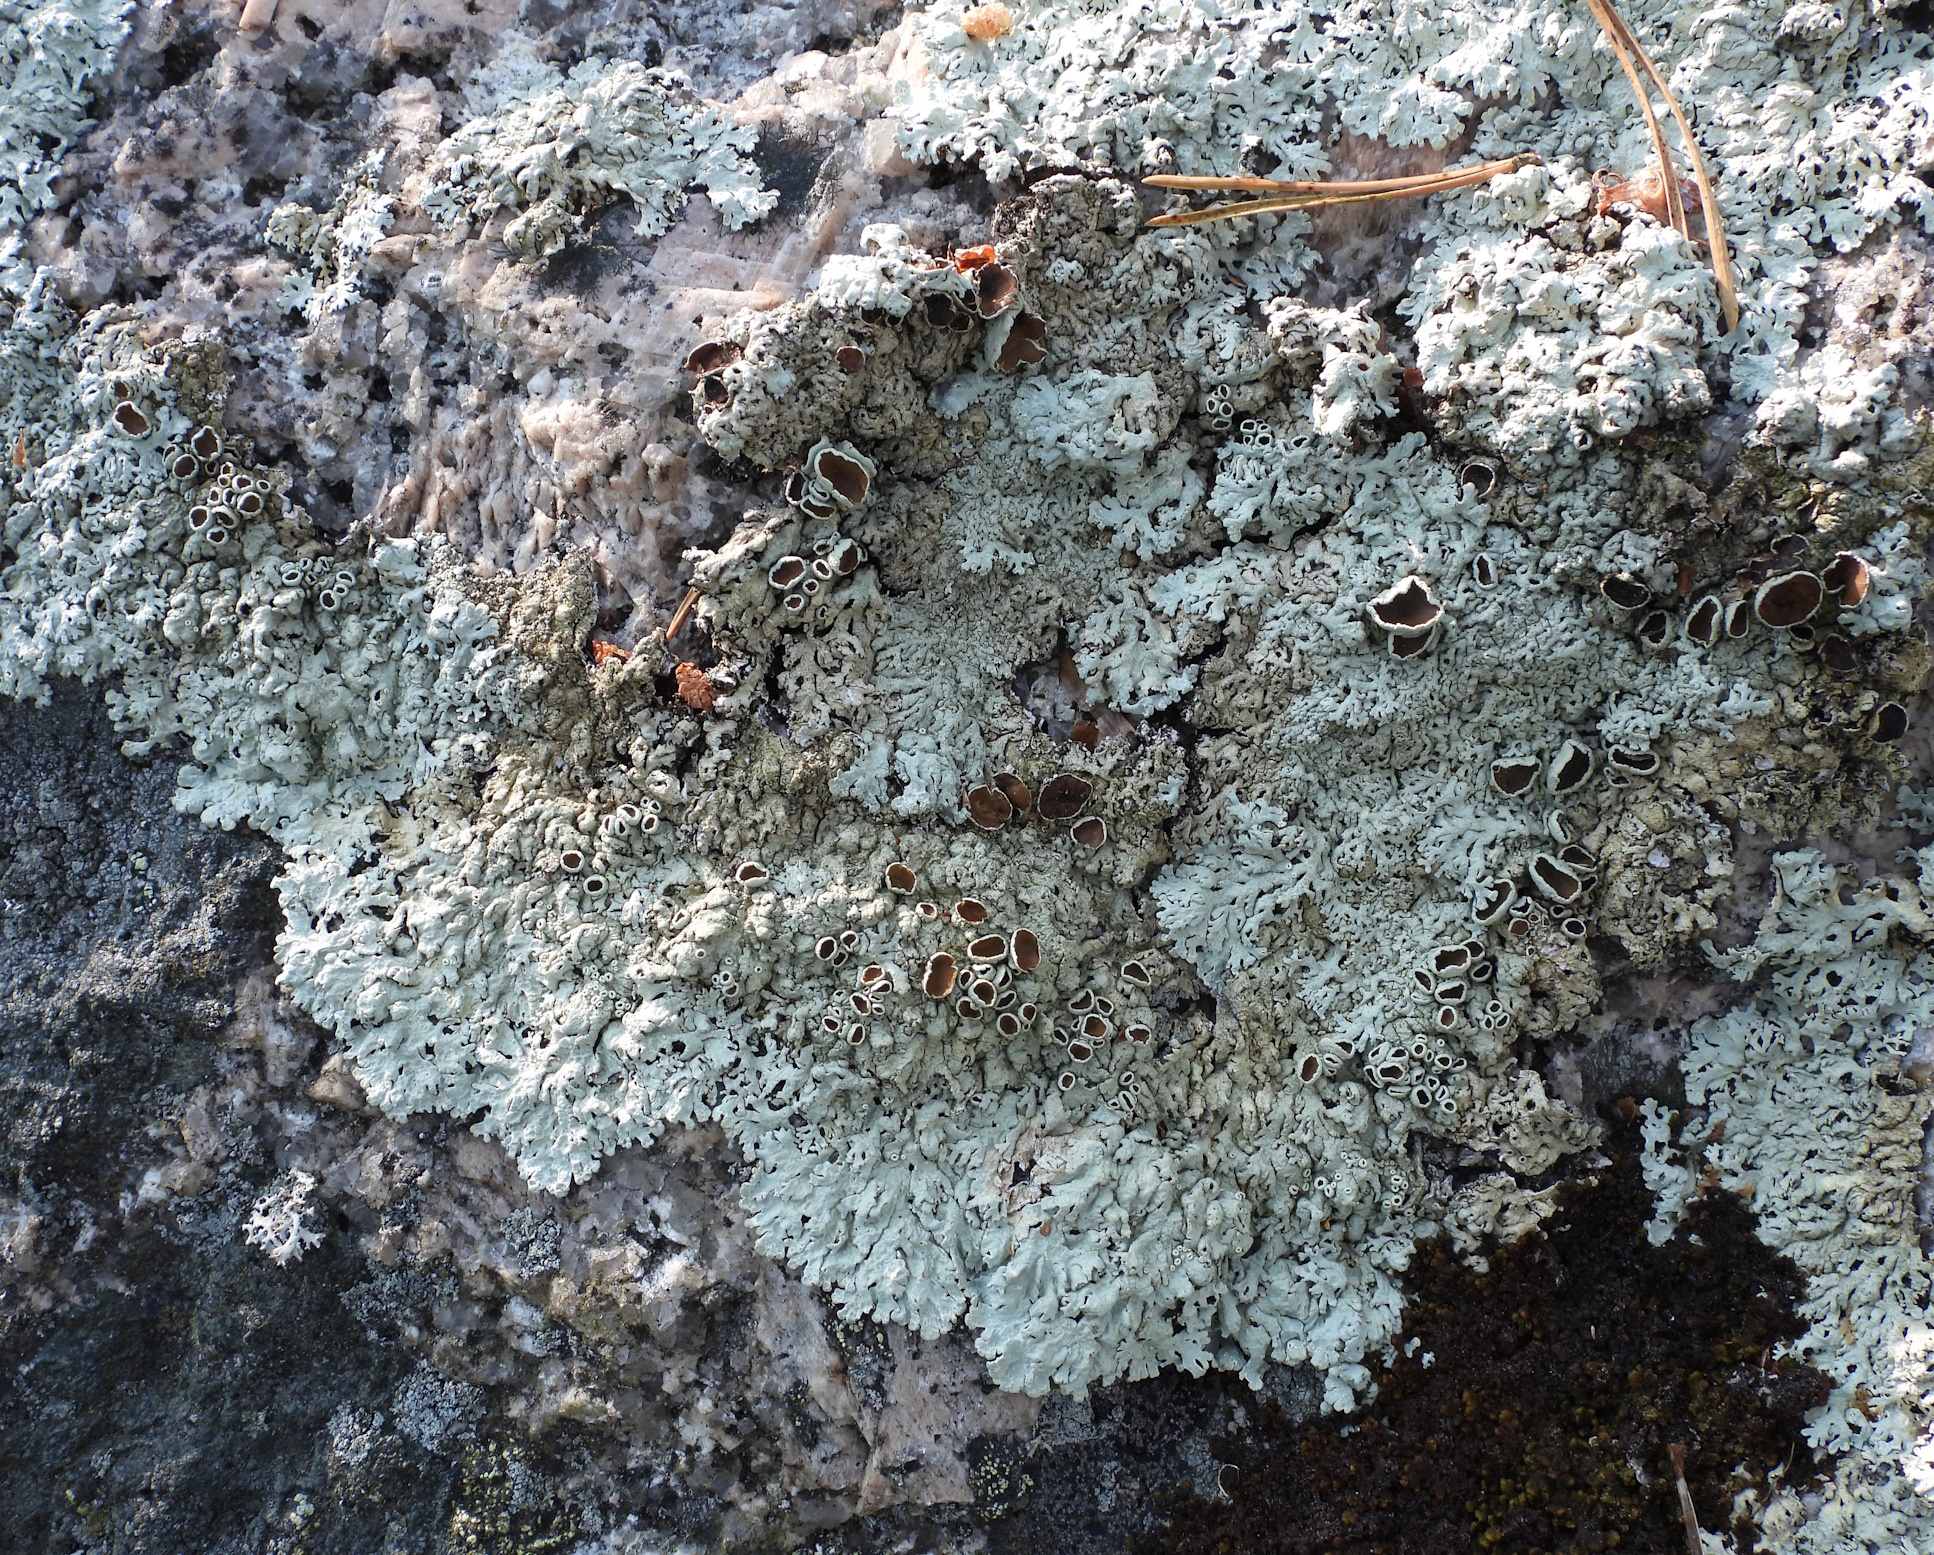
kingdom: Fungi
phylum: Ascomycota
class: Lecanoromycetes
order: Lecanorales
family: Parmeliaceae
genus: Arctoparmelia
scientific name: Arctoparmelia centrifuga
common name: Concentric ring lichen
